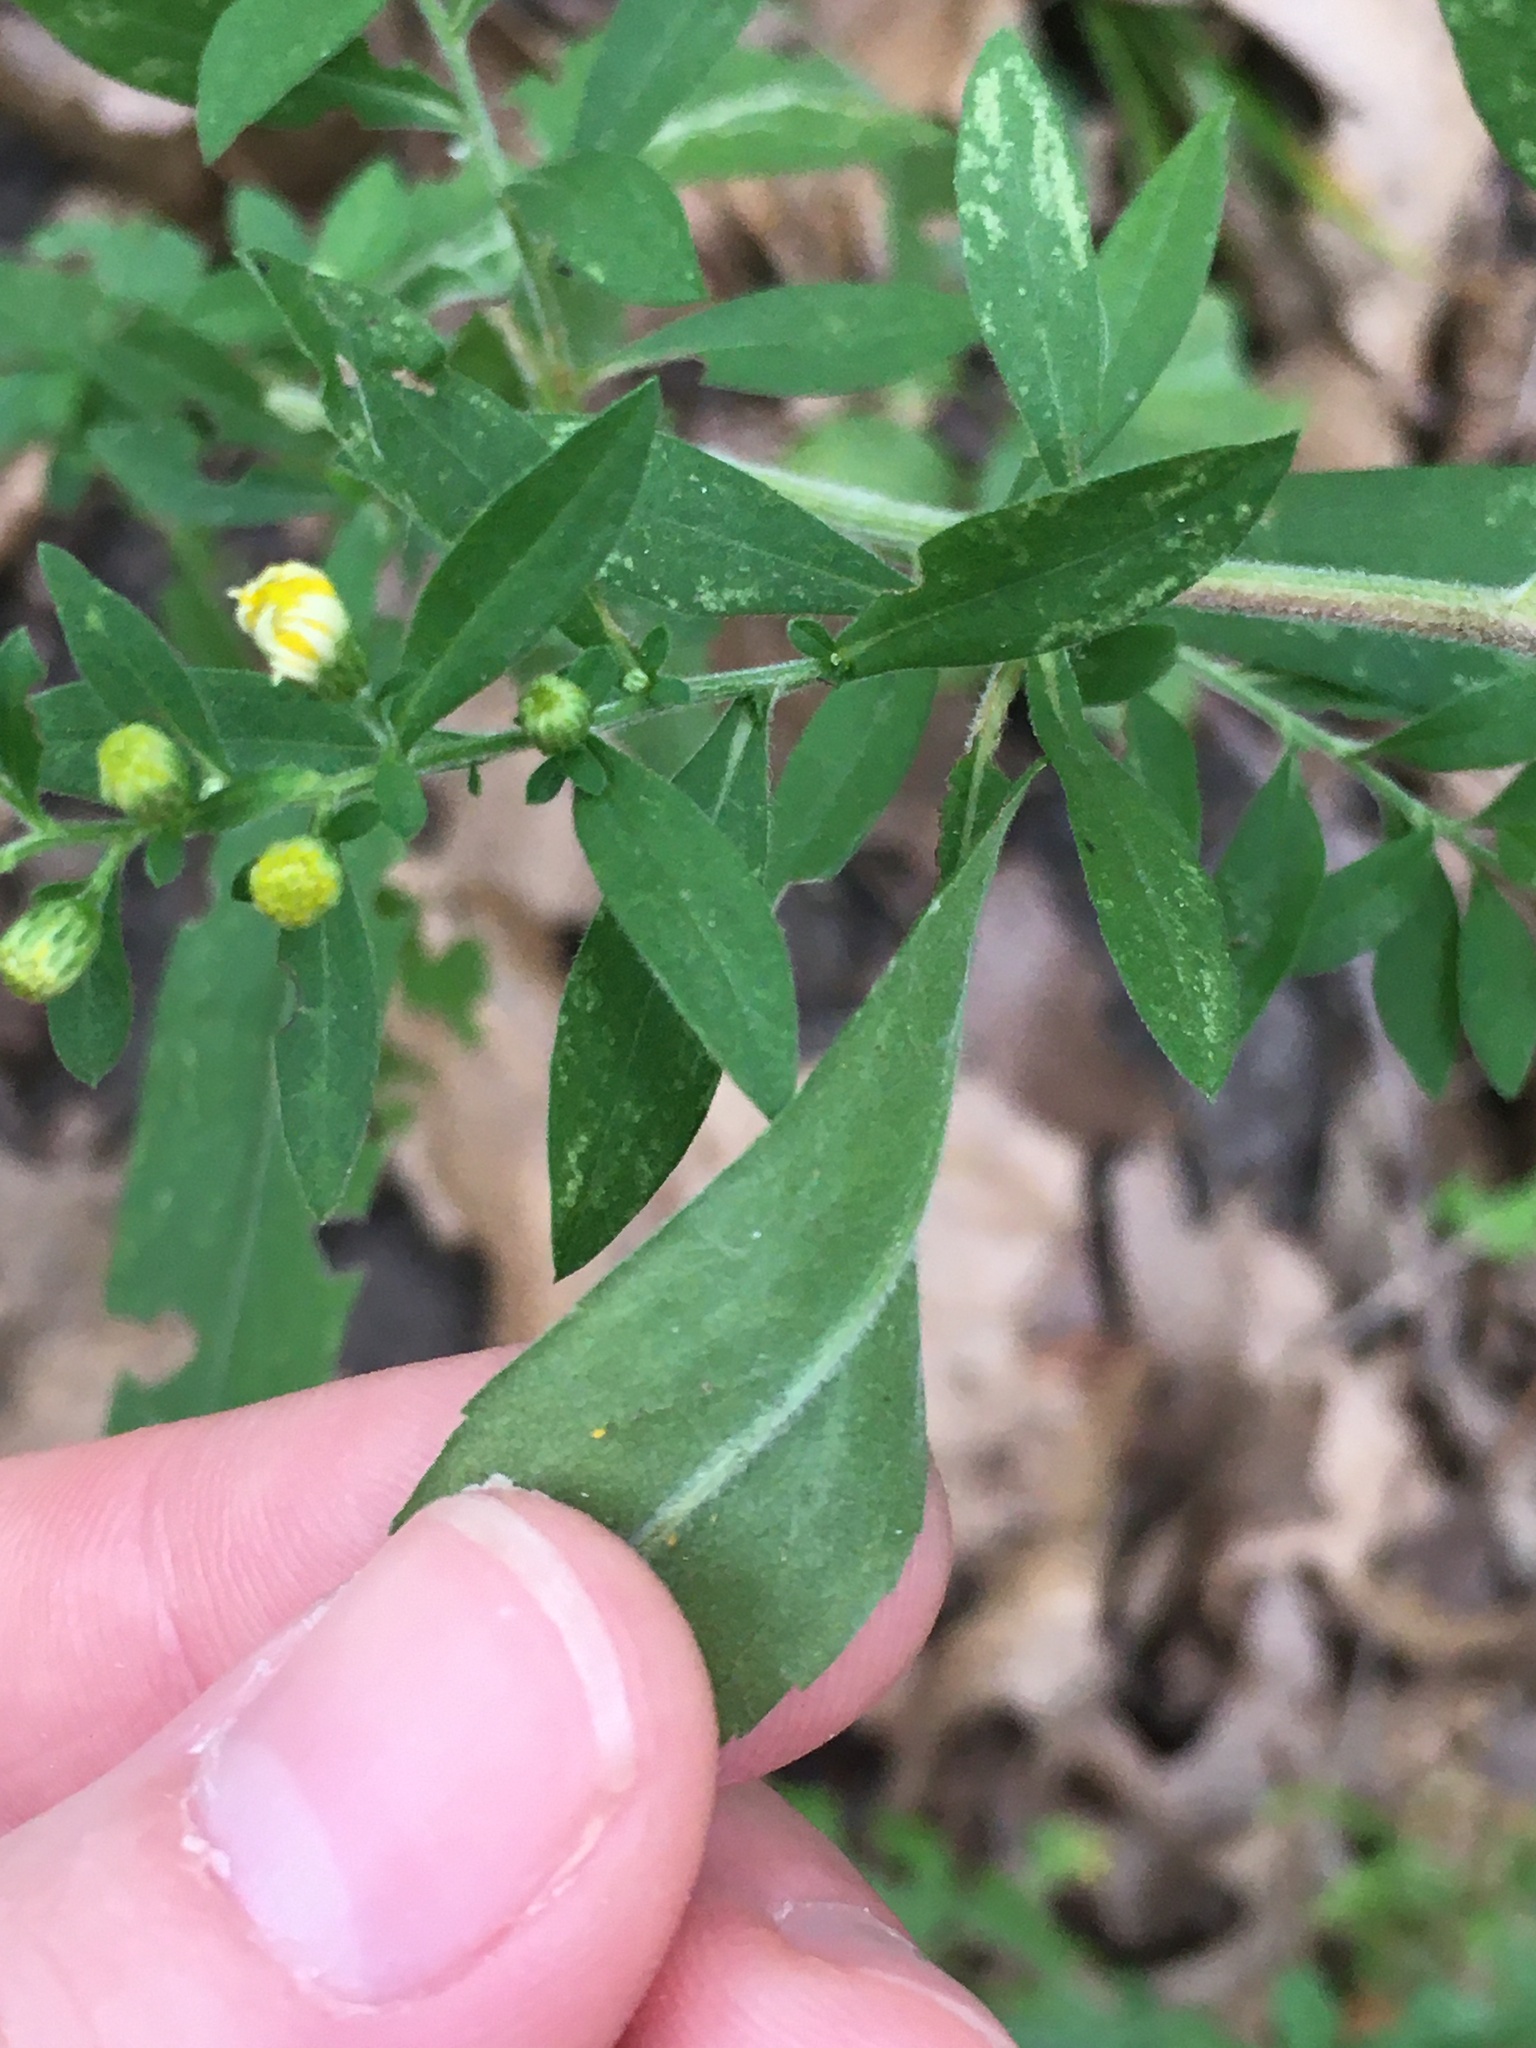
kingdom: Plantae
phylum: Tracheophyta
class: Magnoliopsida
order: Asterales
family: Asteraceae
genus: Symphyotrichum
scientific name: Symphyotrichum ontarionis
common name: Bottomland aster
